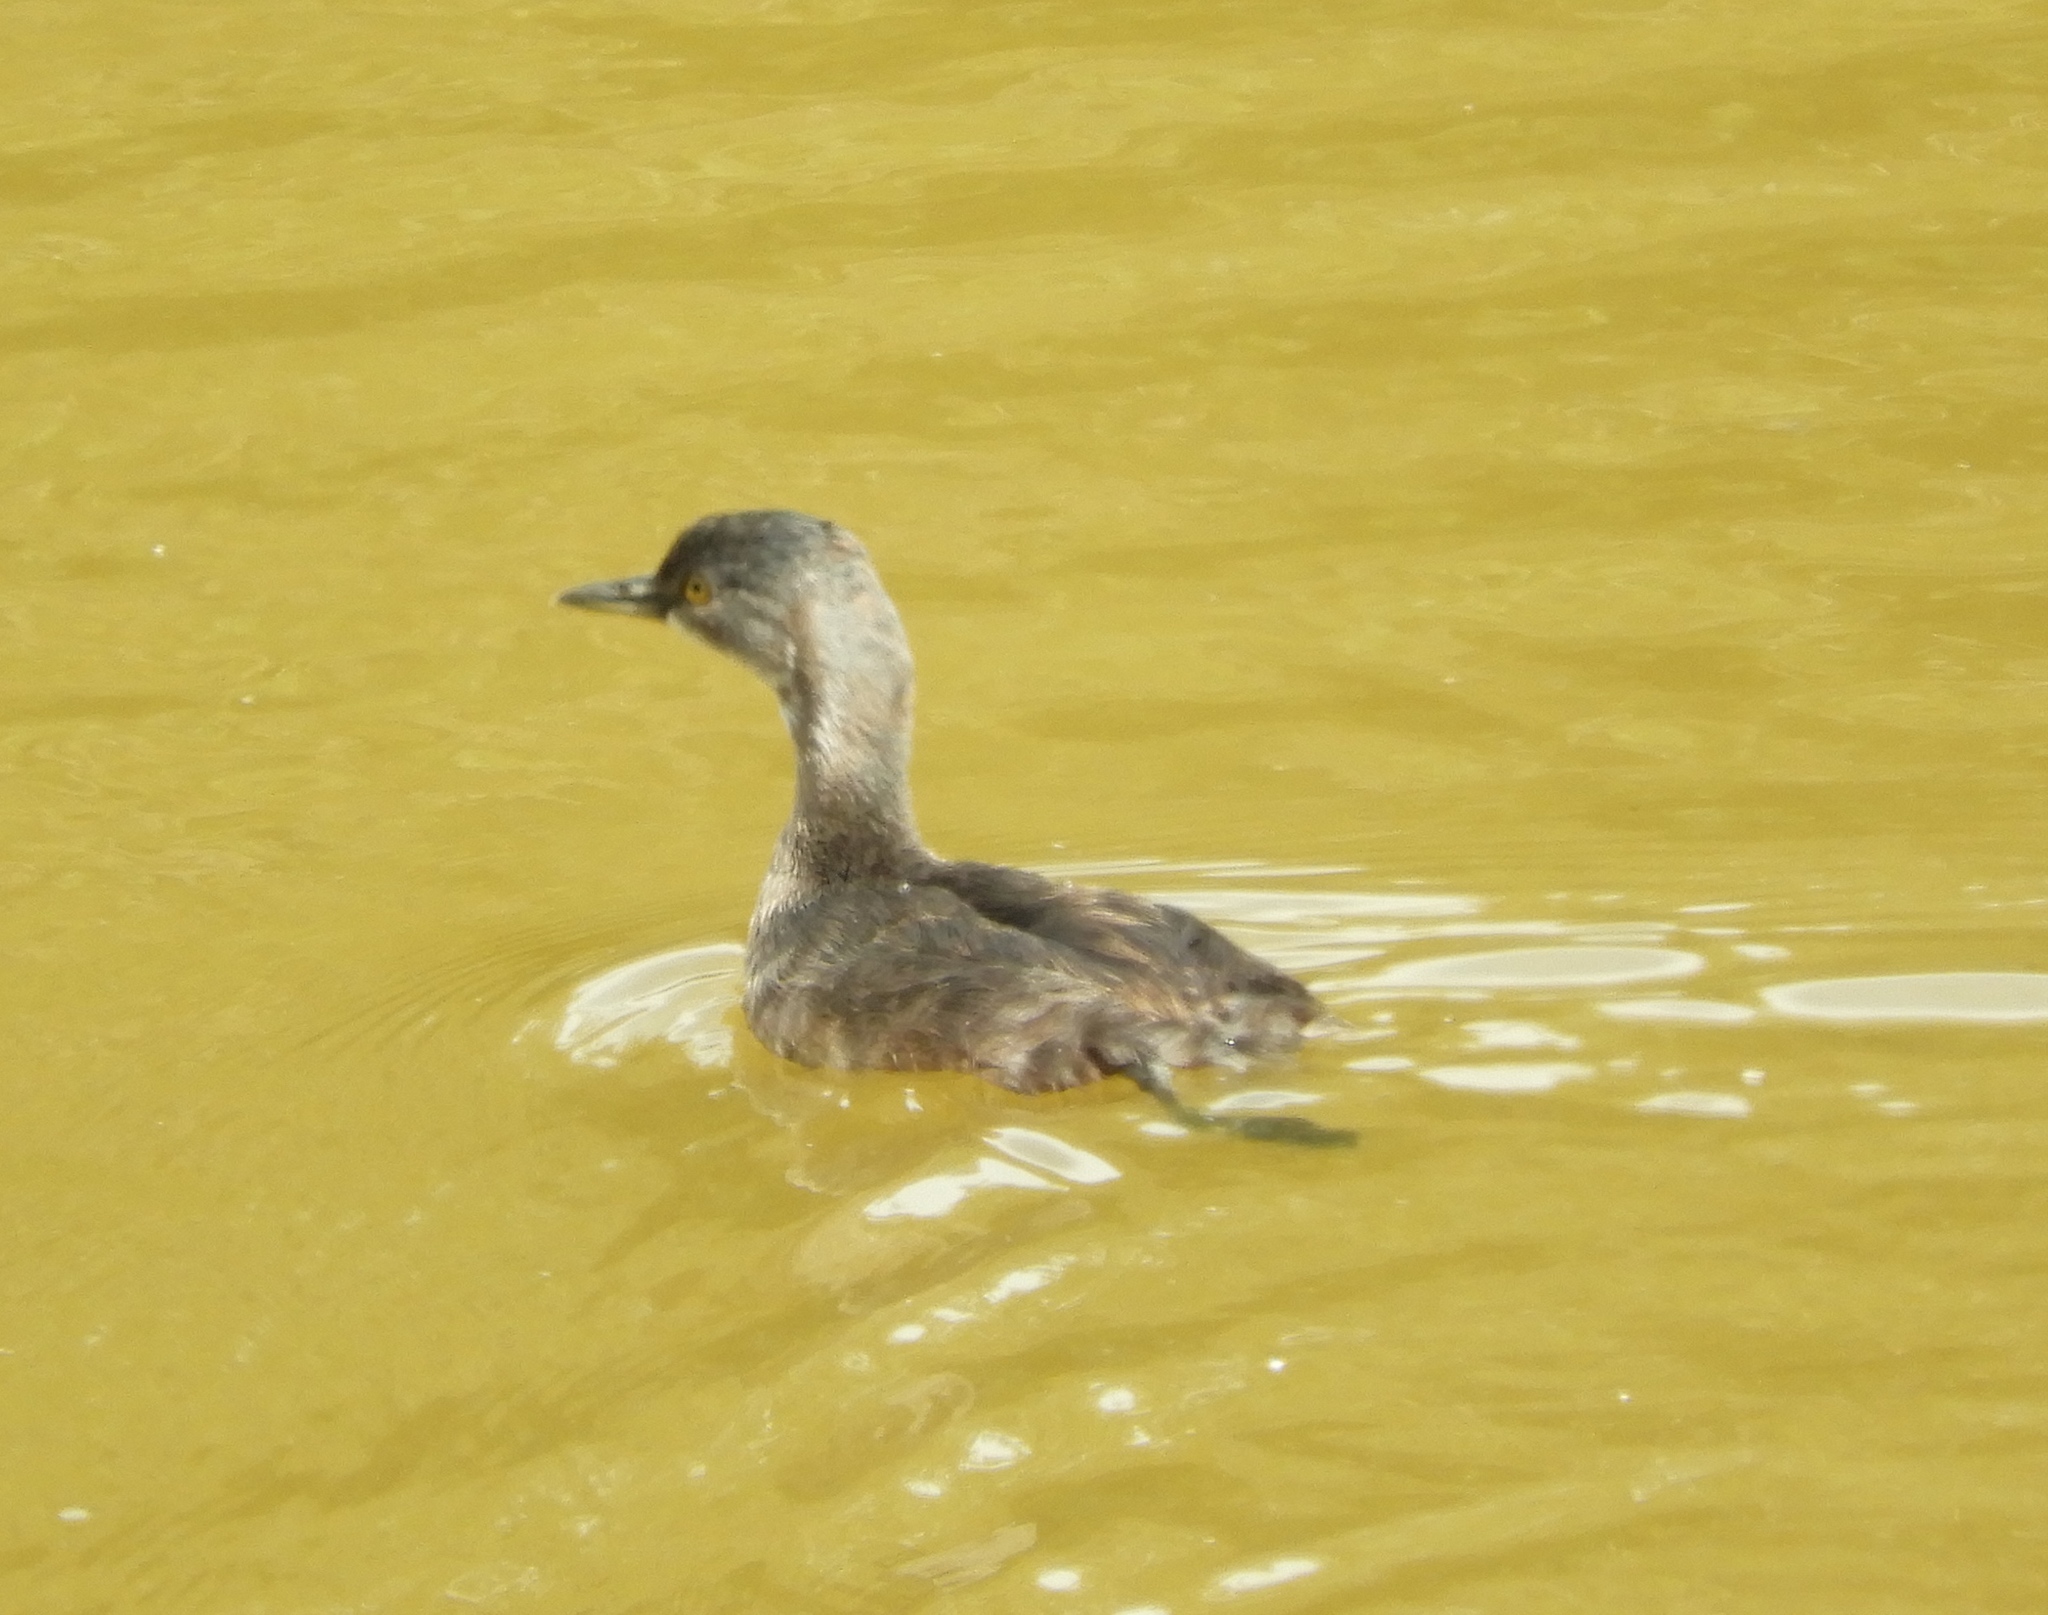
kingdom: Animalia
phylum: Chordata
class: Aves
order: Podicipediformes
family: Podicipedidae
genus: Tachybaptus
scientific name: Tachybaptus dominicus
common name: Least grebe
